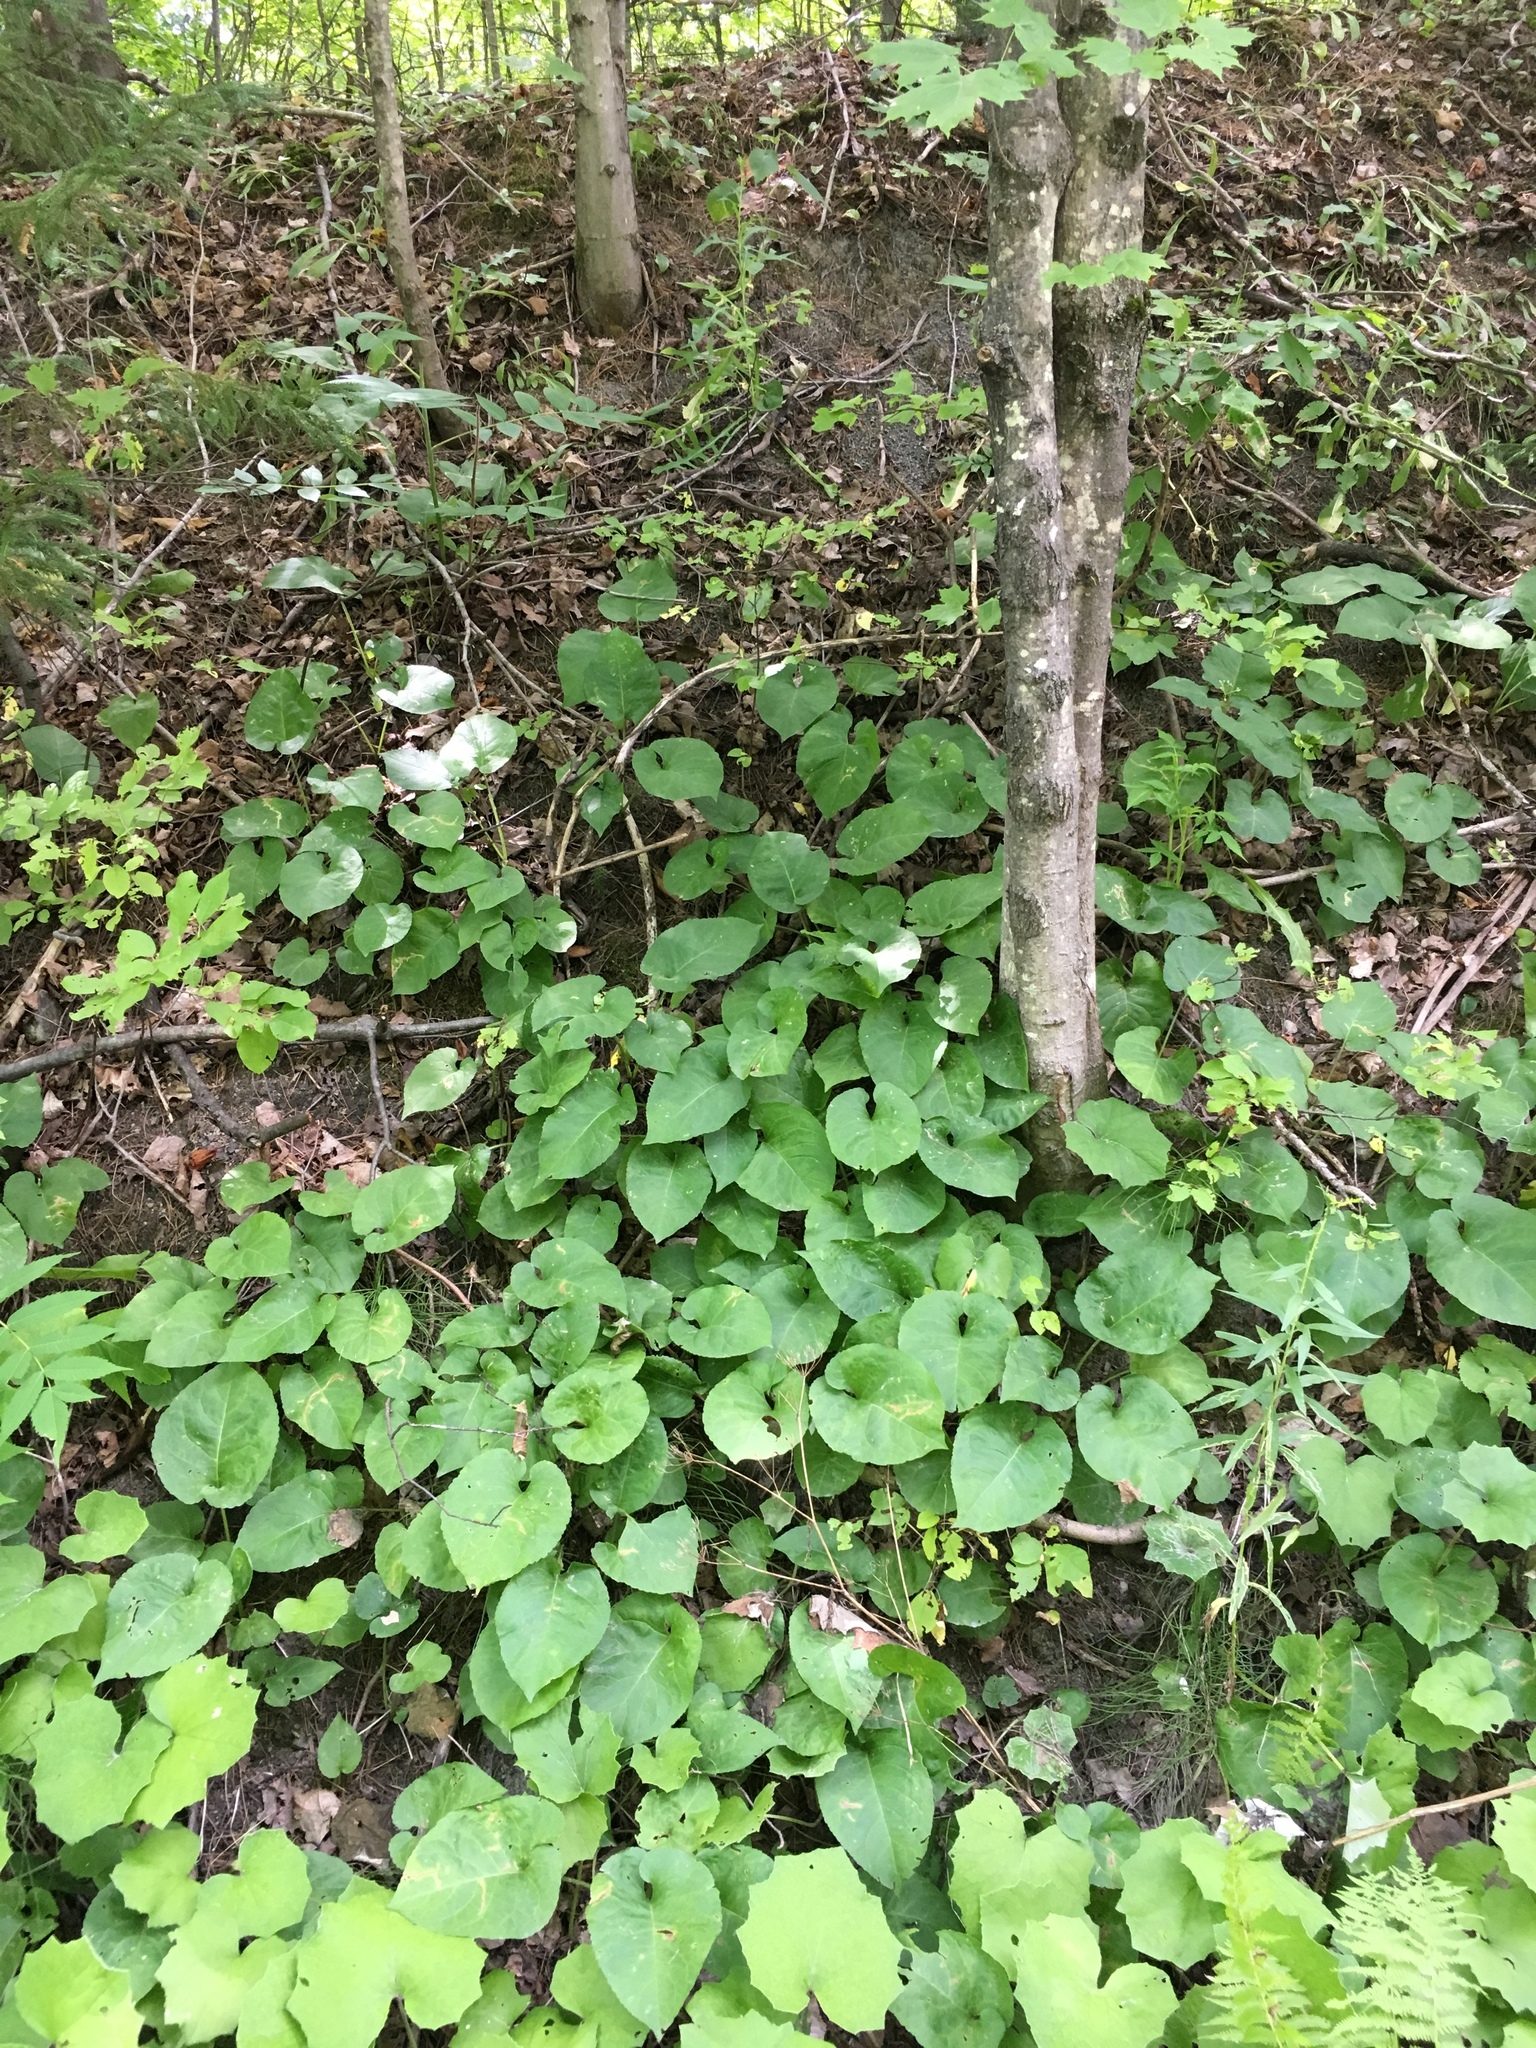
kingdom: Plantae
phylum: Tracheophyta
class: Magnoliopsida
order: Asterales
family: Asteraceae
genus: Eurybia
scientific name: Eurybia macrophylla
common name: Big-leaved aster
